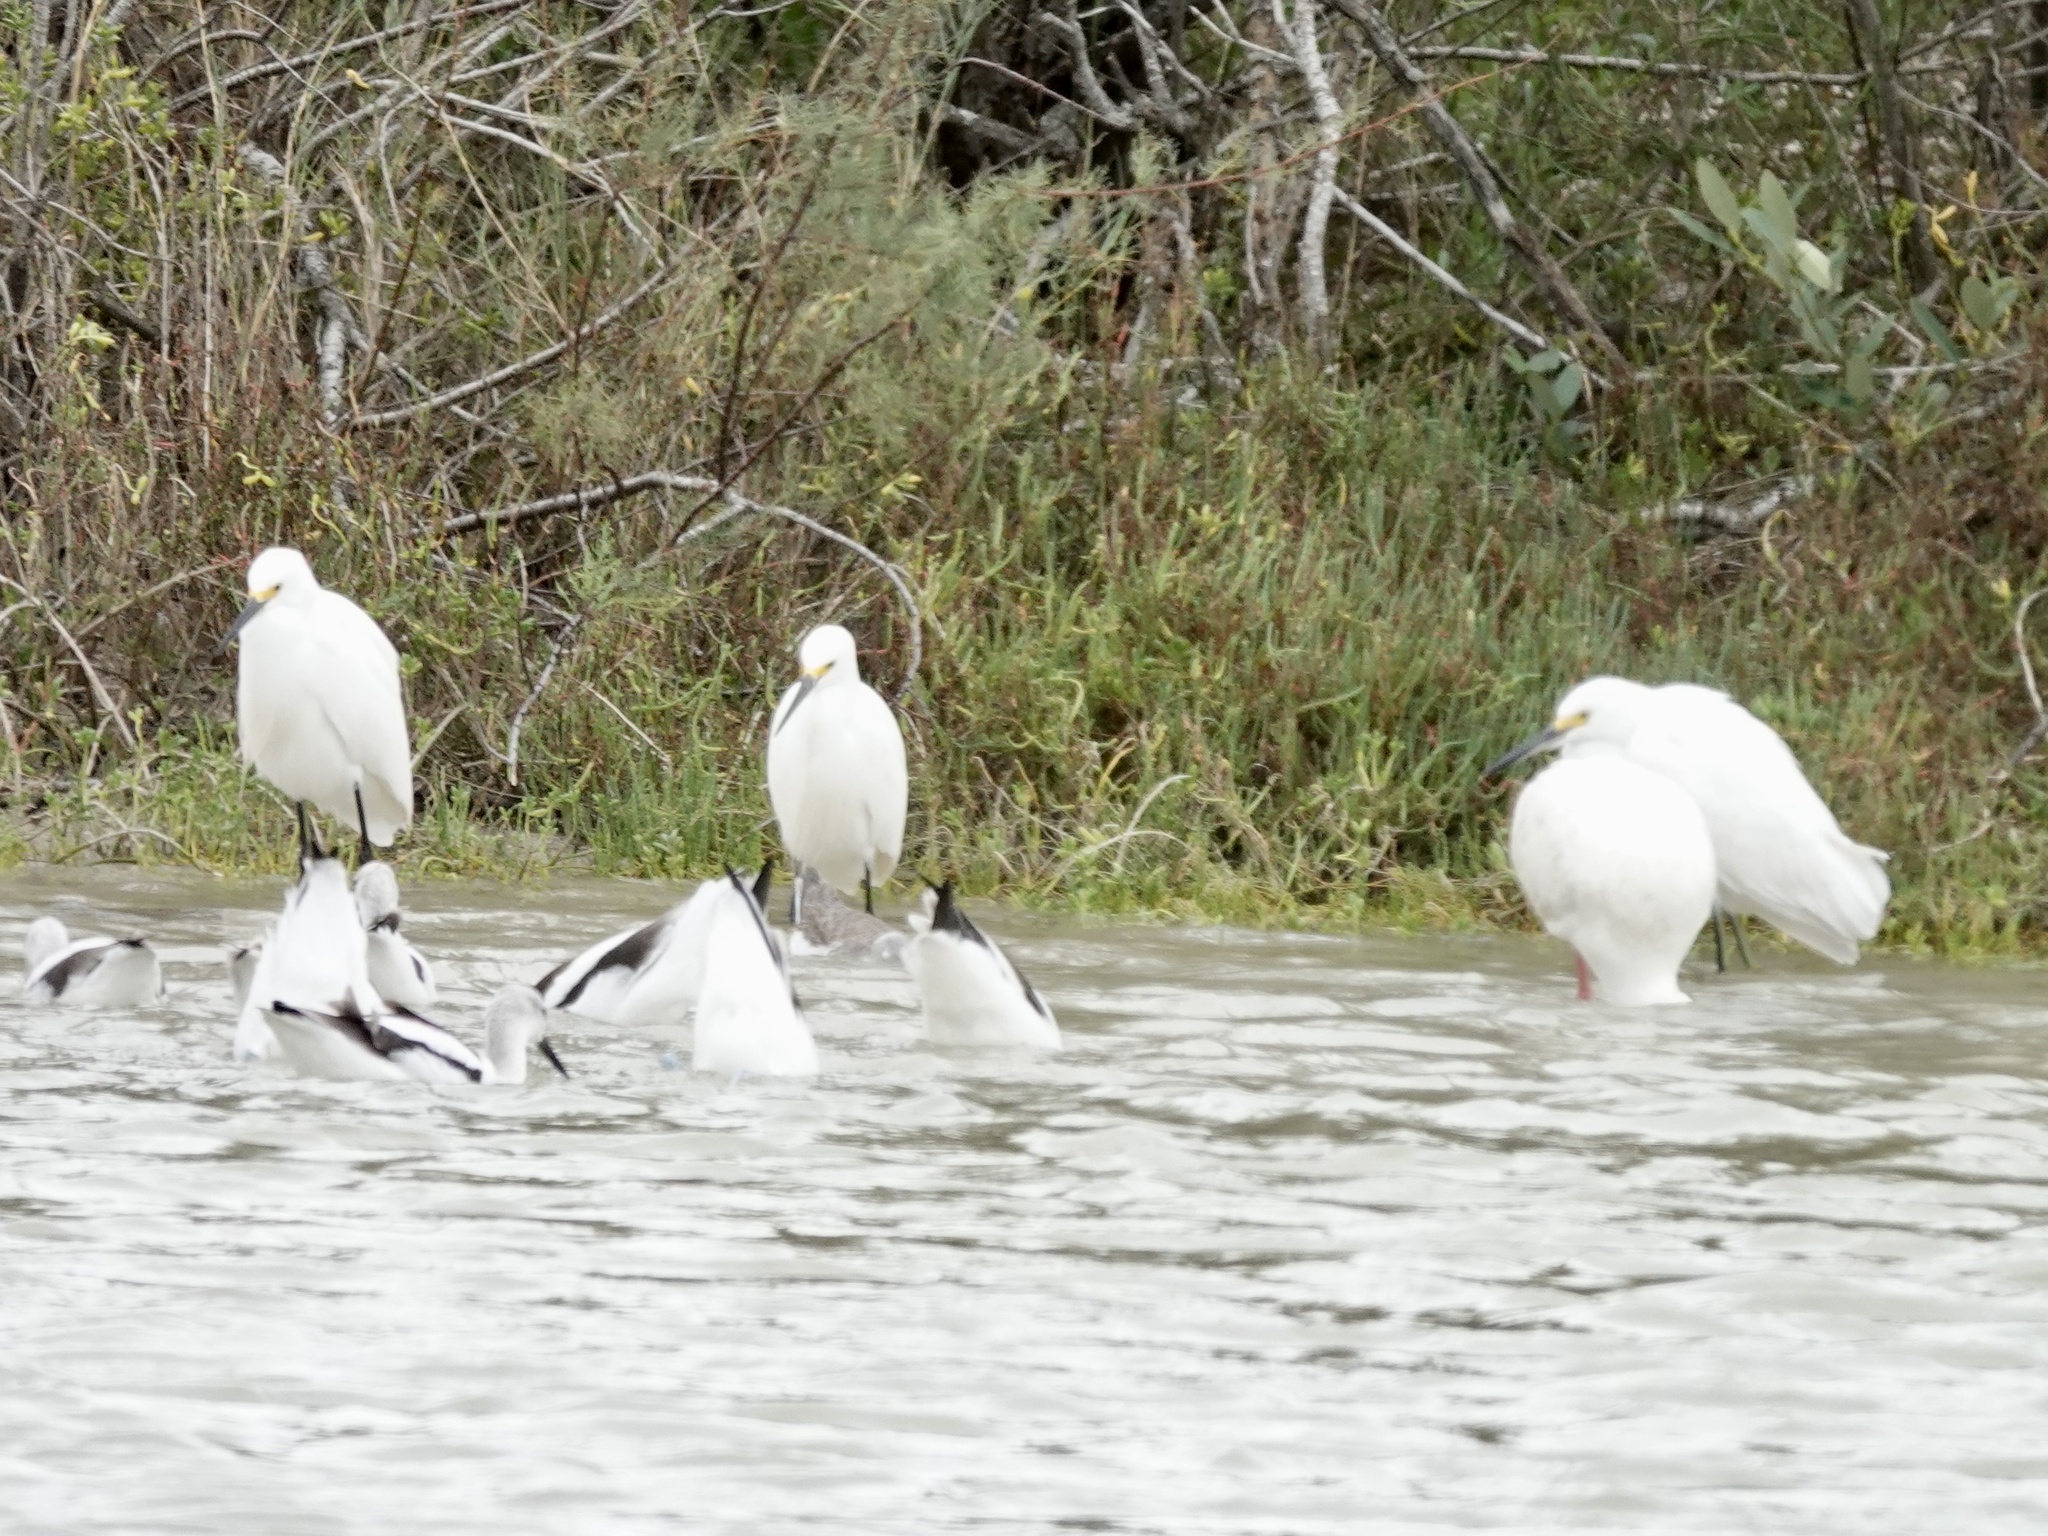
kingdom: Animalia
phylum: Chordata
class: Aves
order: Pelecaniformes
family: Ardeidae
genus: Egretta
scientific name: Egretta thula
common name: Snowy egret
